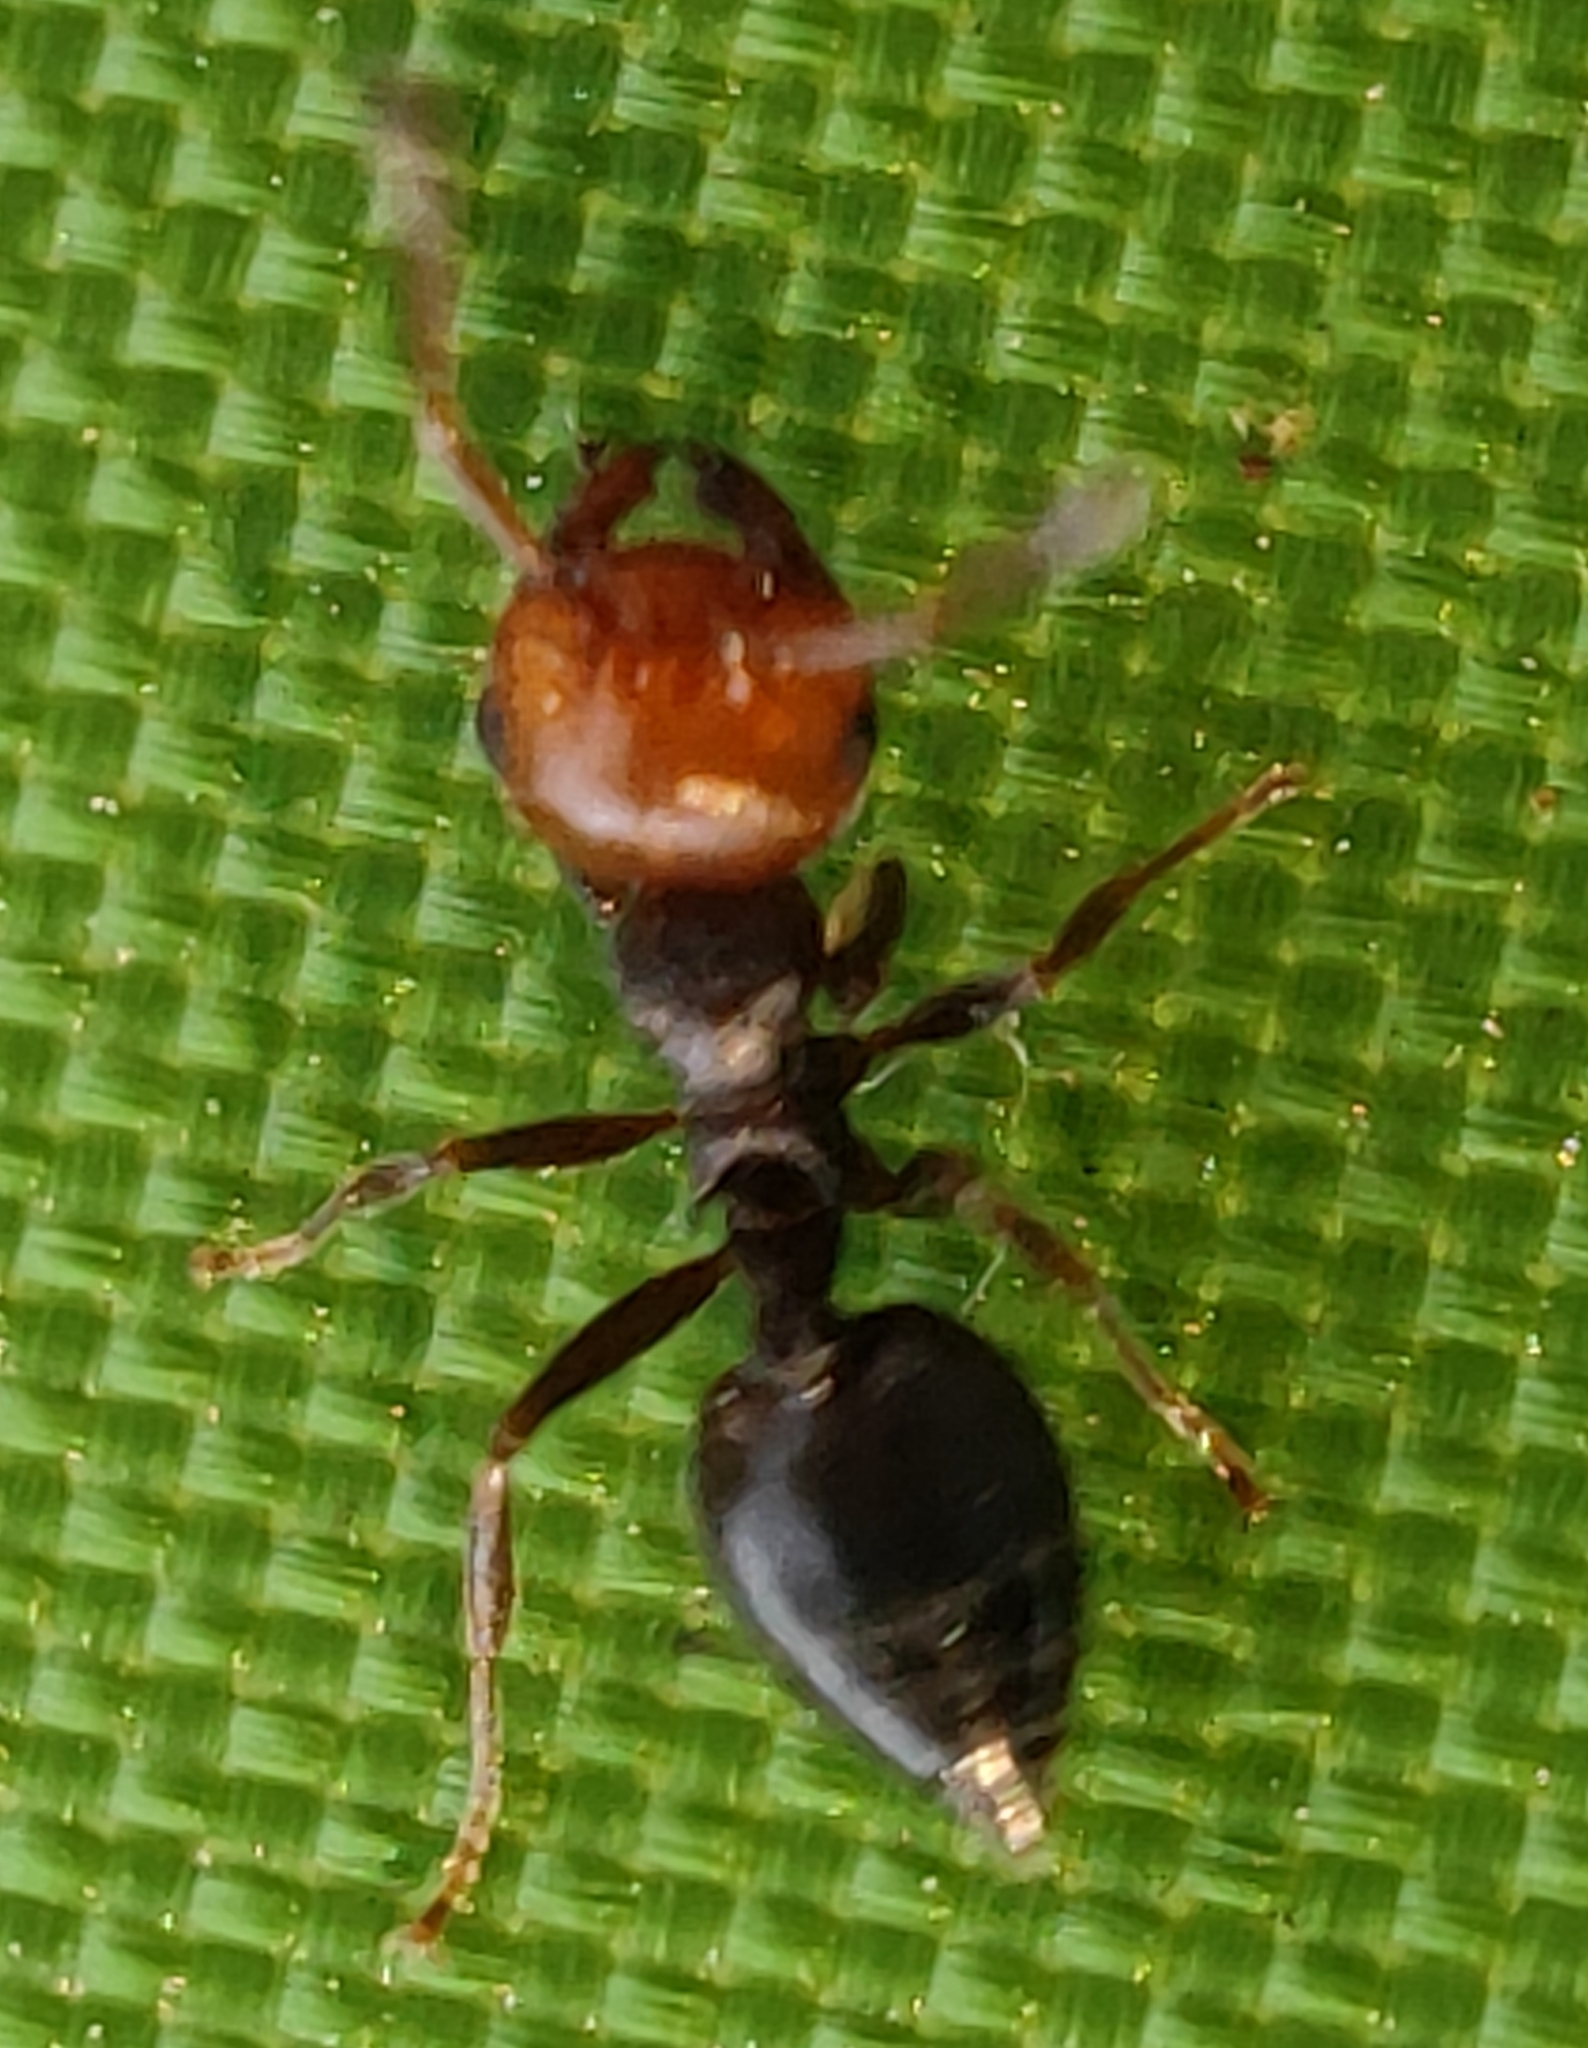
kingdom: Animalia
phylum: Arthropoda
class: Insecta
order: Hymenoptera
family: Formicidae
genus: Crematogaster
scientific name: Crematogaster scutellaris
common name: Fourmi du liège
